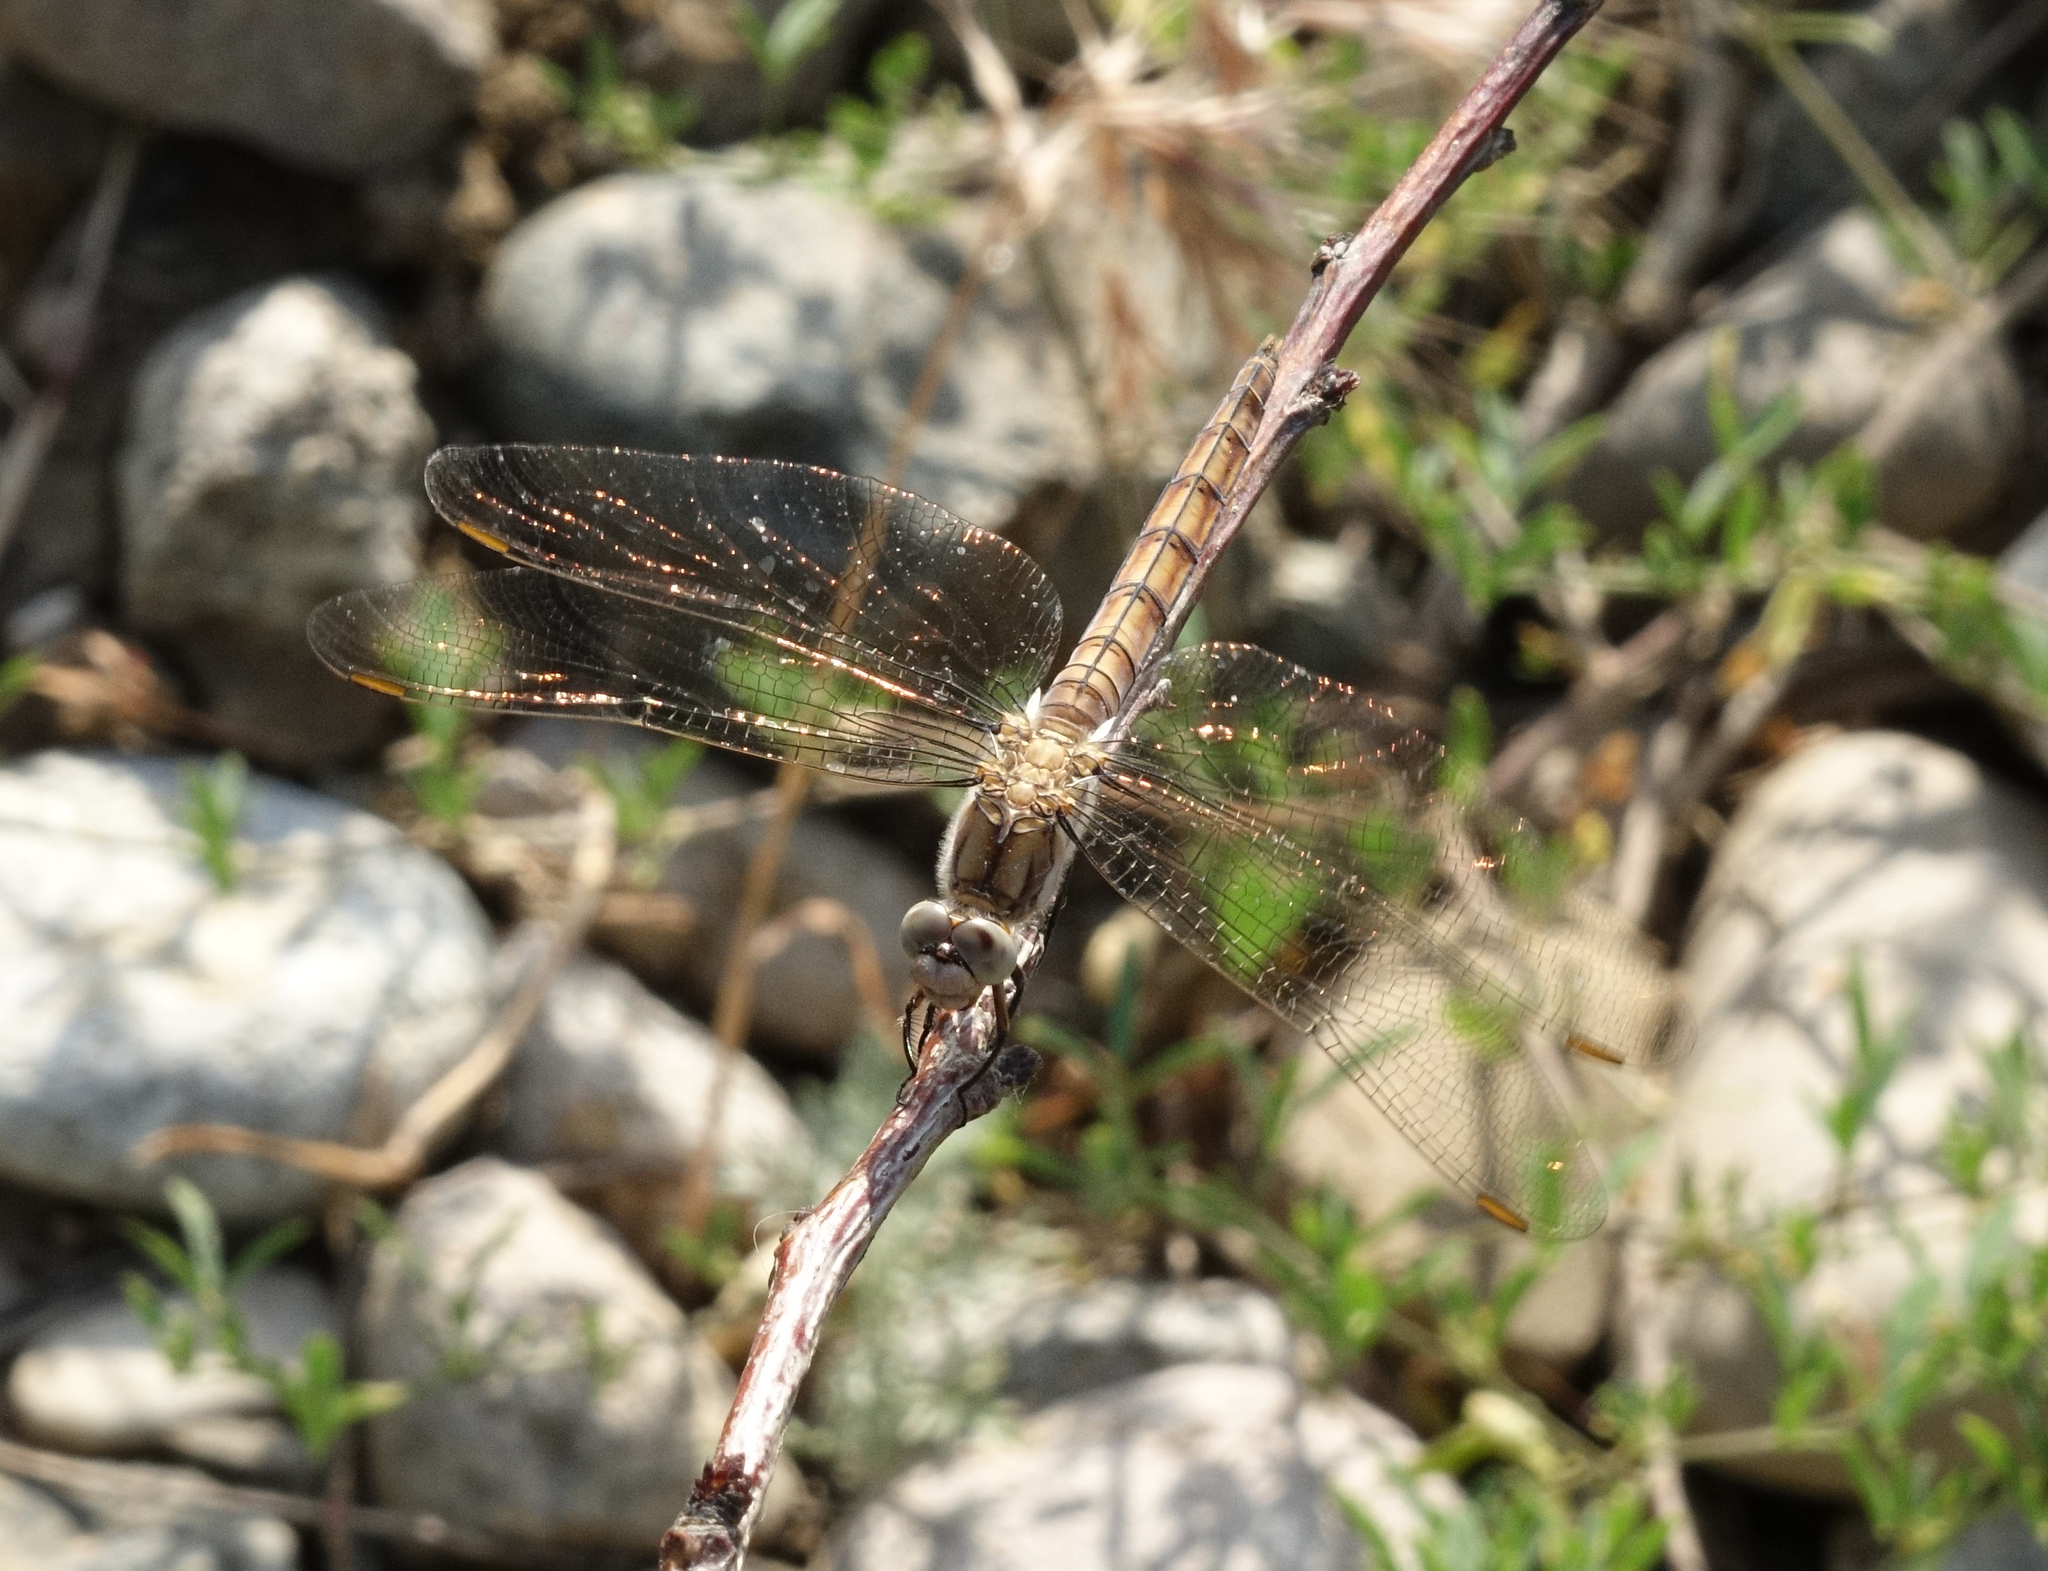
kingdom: Animalia
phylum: Arthropoda
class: Insecta
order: Odonata
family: Libellulidae
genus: Orthetrum
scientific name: Orthetrum brunneum
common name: Southern skimmer
